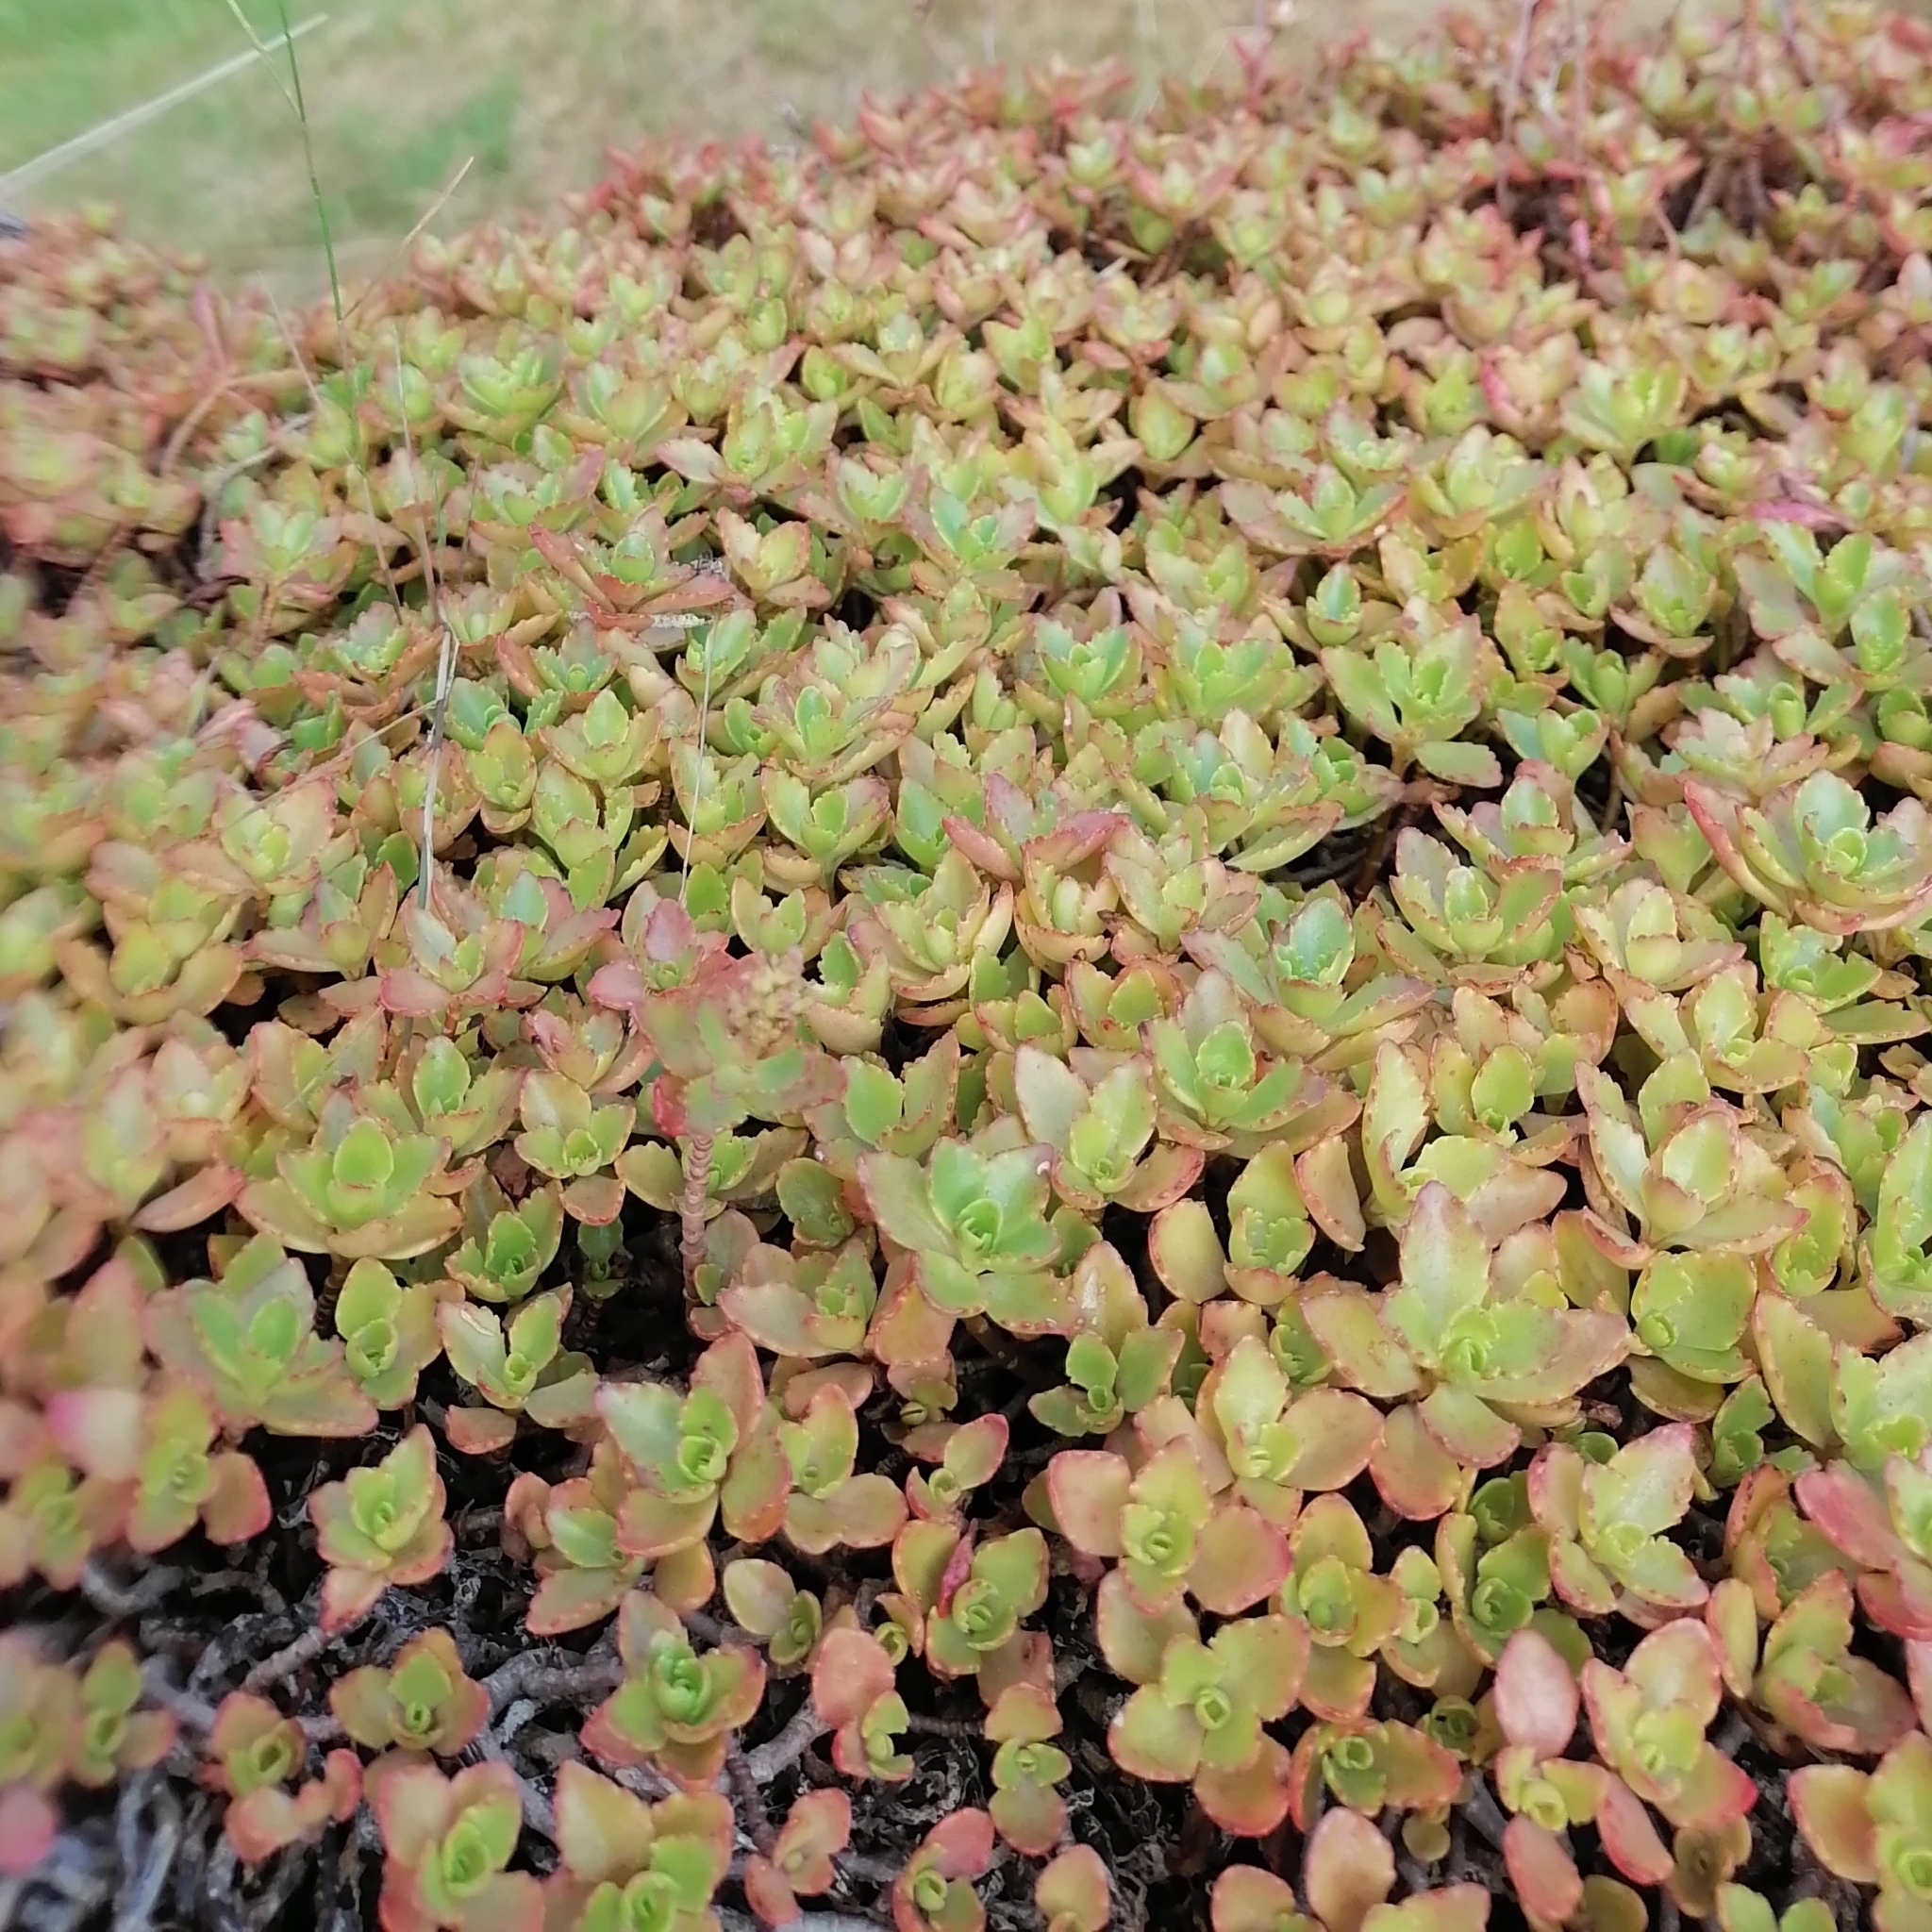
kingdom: Plantae
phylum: Tracheophyta
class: Magnoliopsida
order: Saxifragales
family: Crassulaceae
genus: Phedimus
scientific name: Phedimus spurius
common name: Caucasian stonecrop
